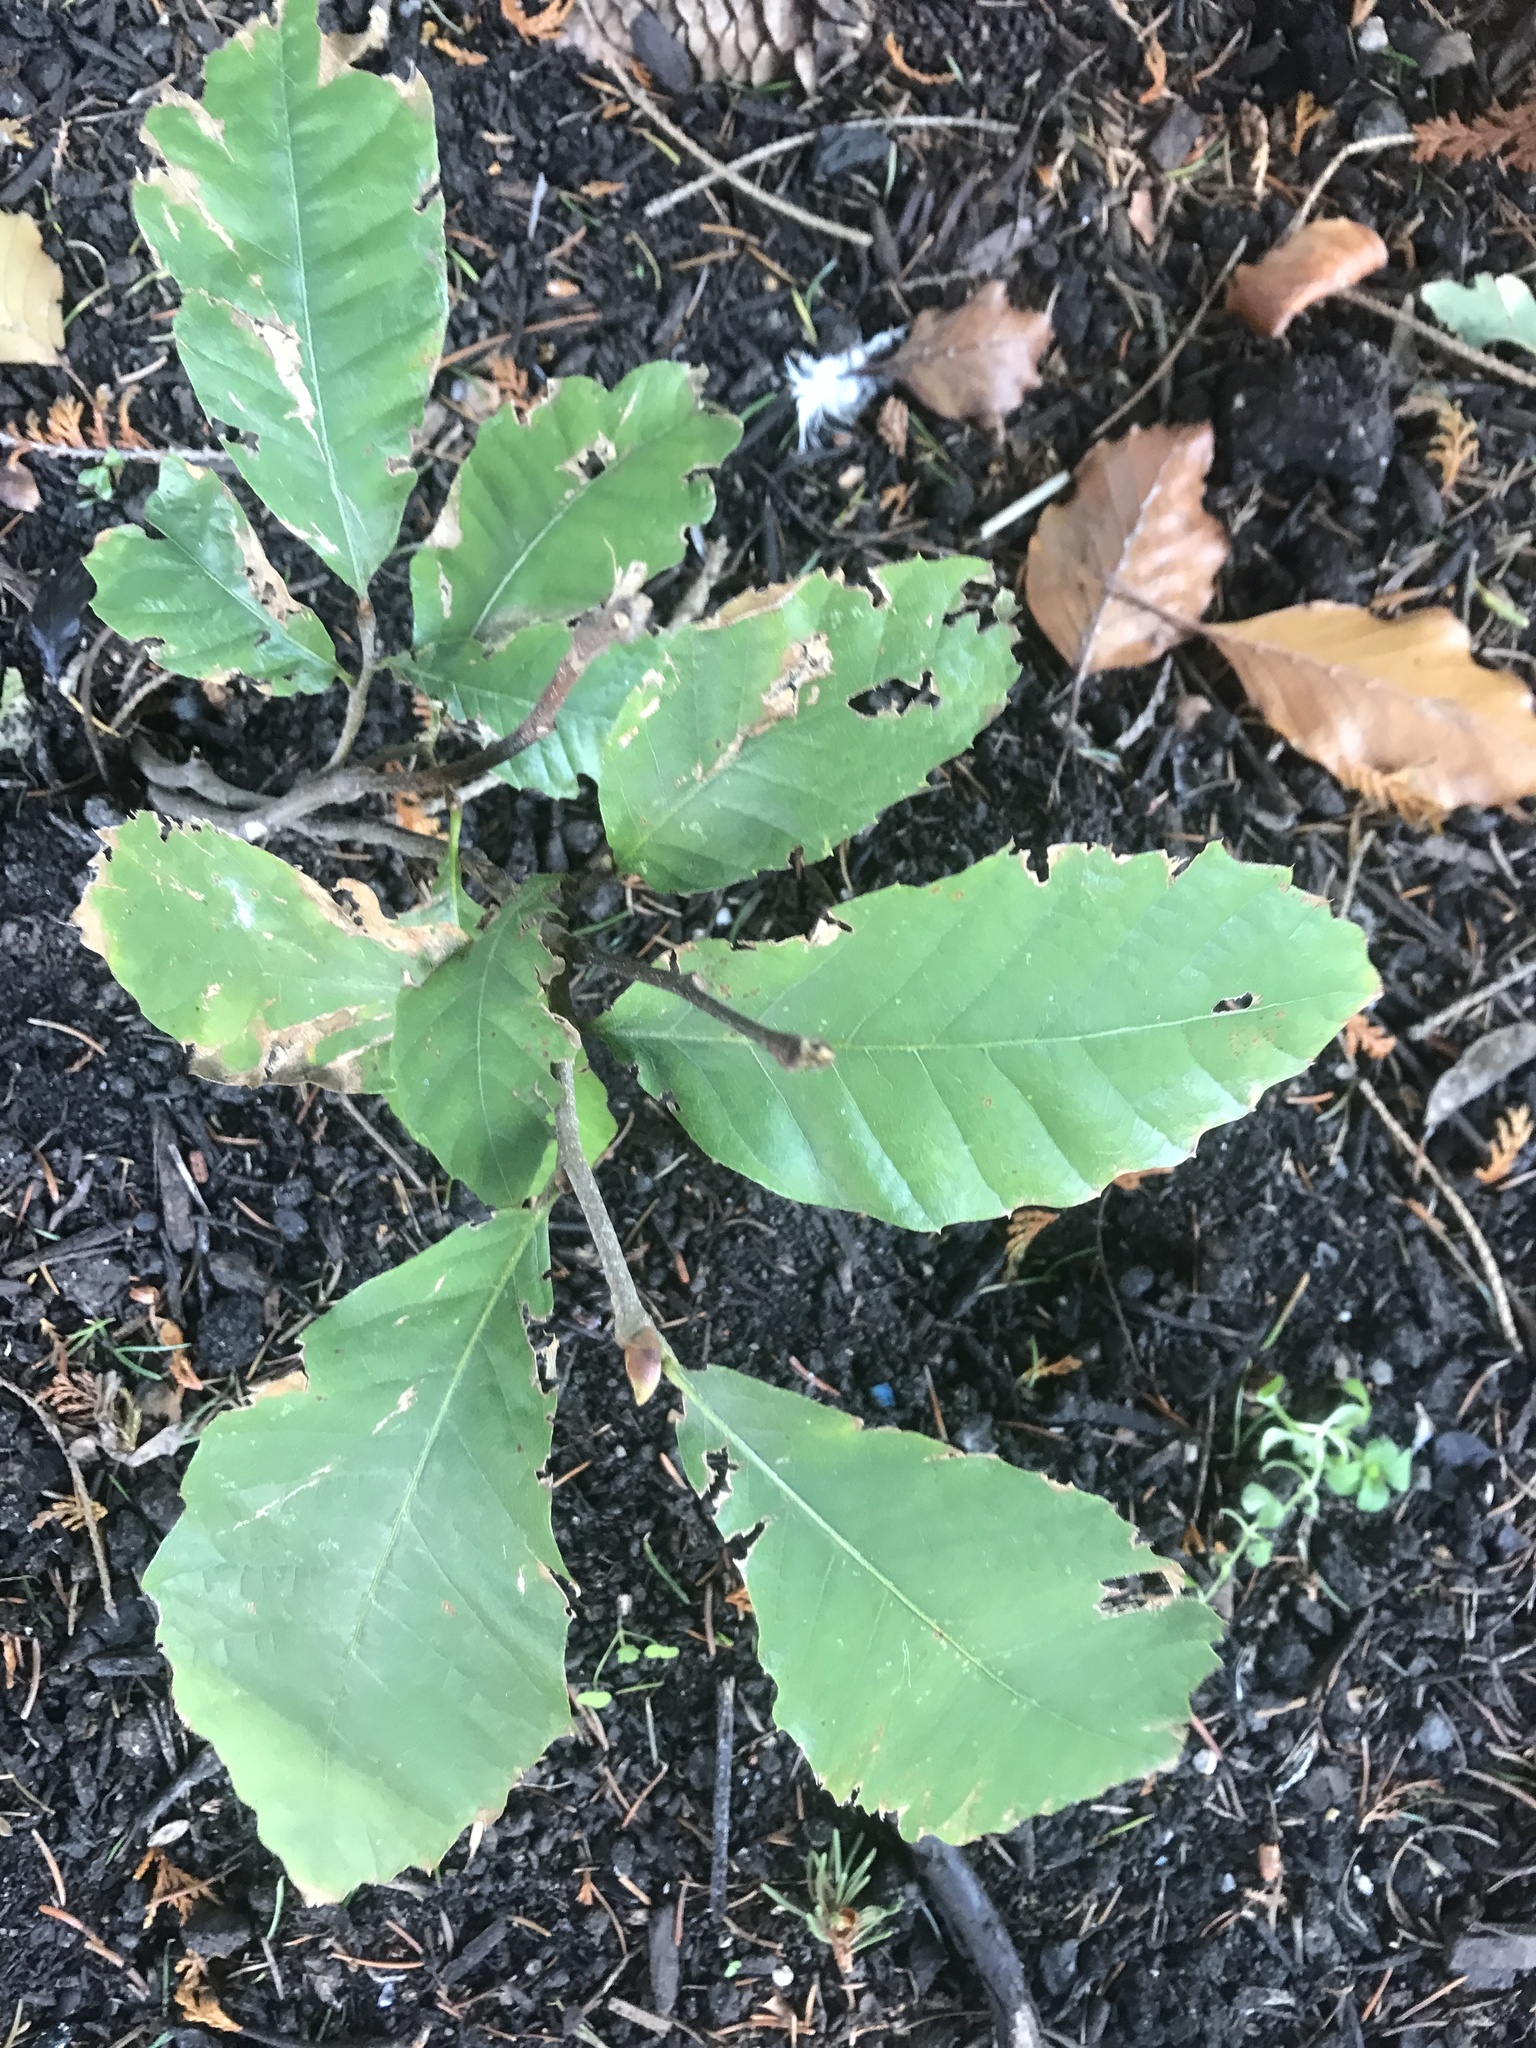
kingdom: Plantae
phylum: Tracheophyta
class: Magnoliopsida
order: Fagales
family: Fagaceae
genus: Castanea
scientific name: Castanea sativa
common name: Sweet chestnut
